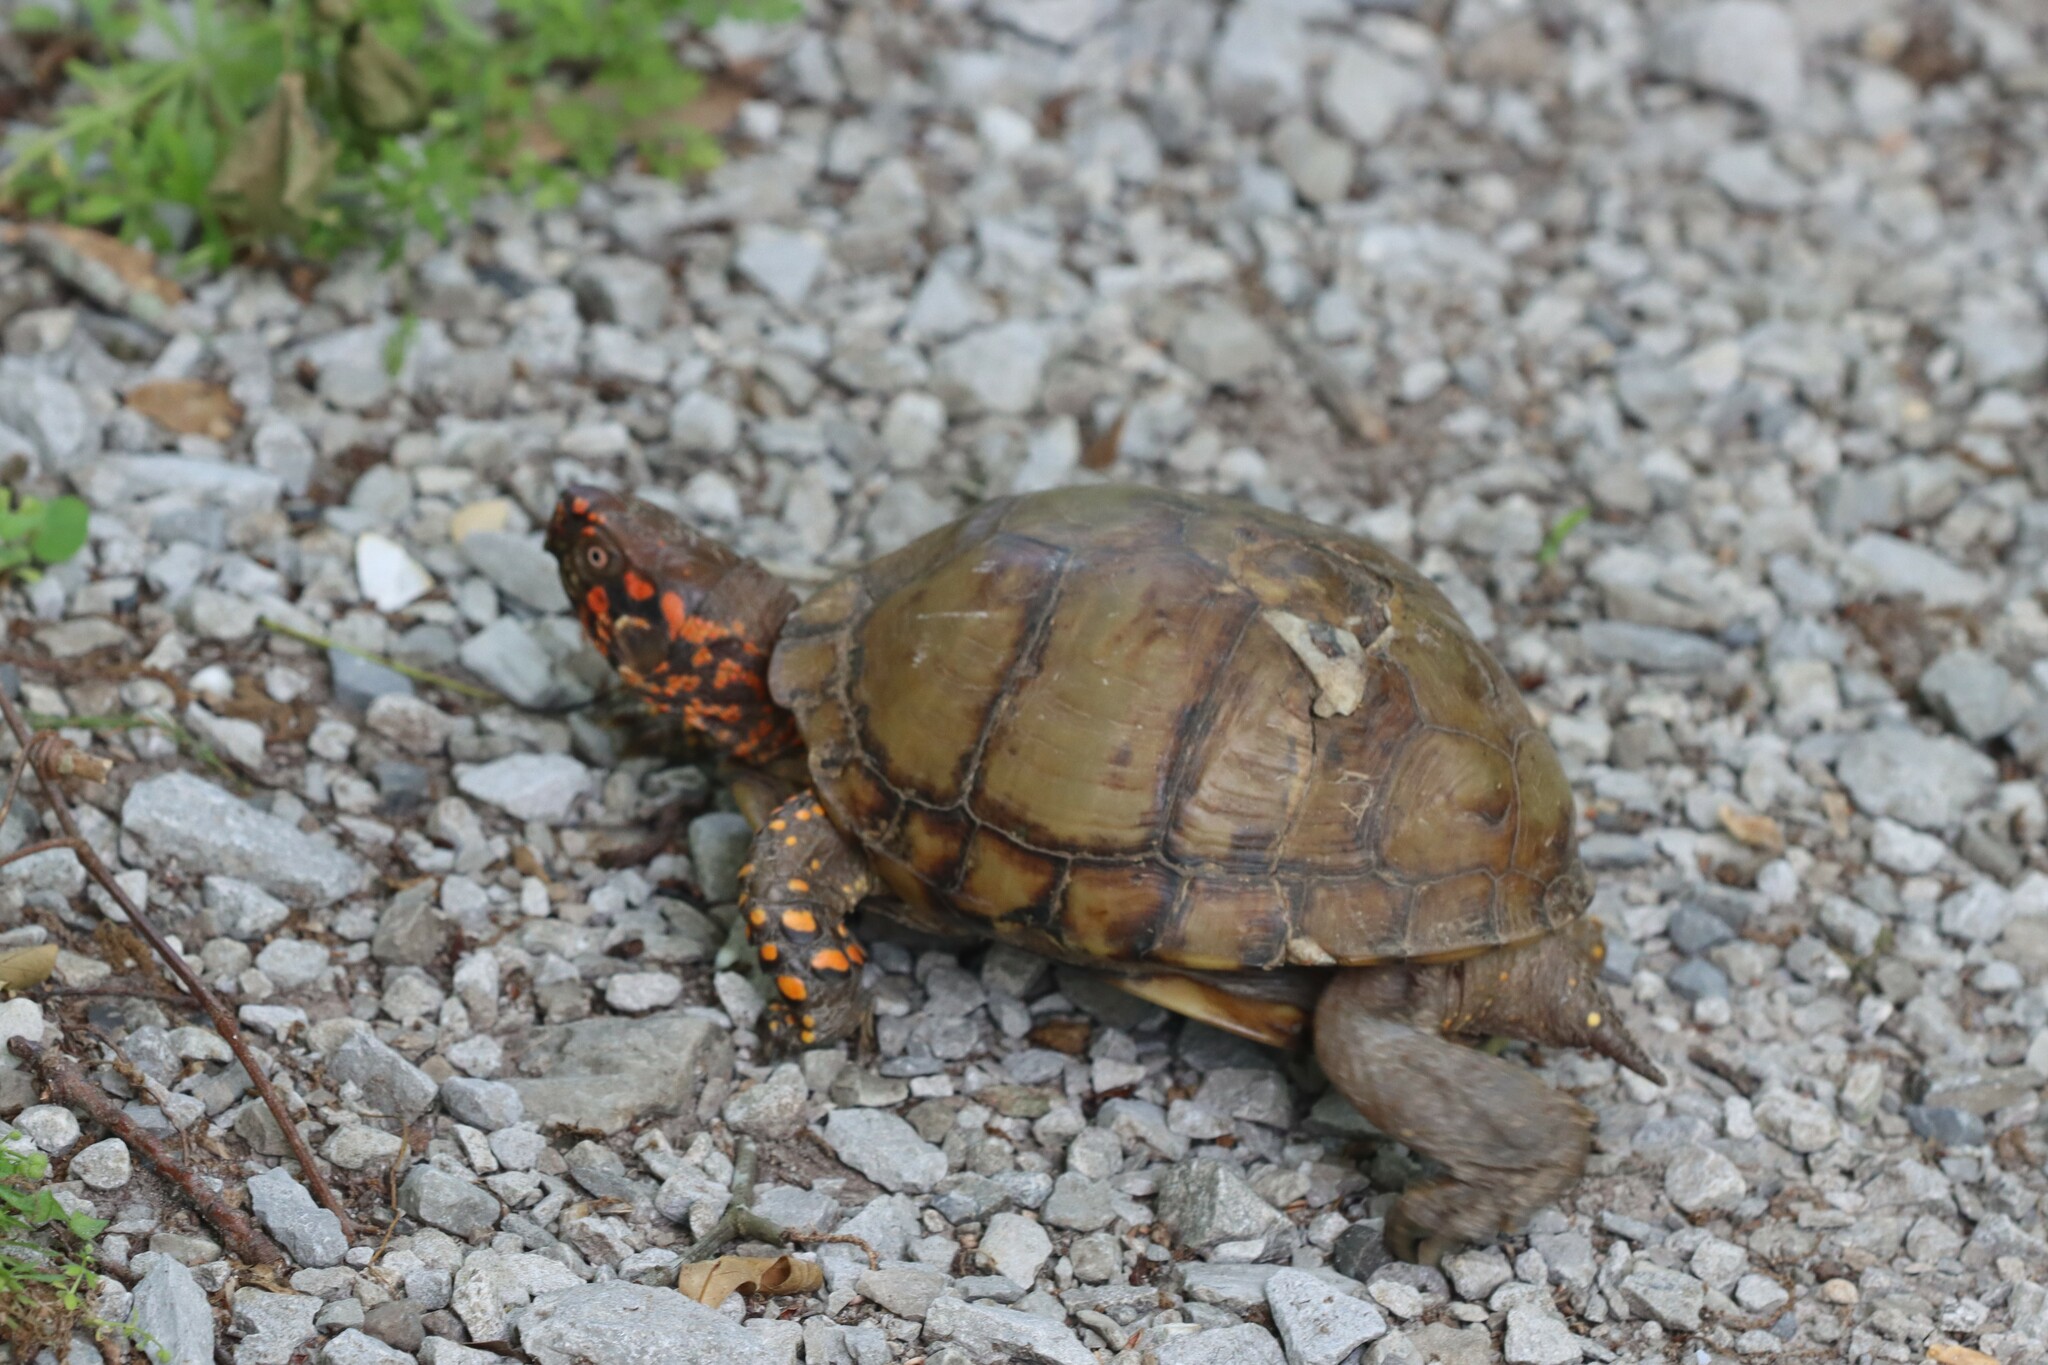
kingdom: Animalia
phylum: Chordata
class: Testudines
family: Emydidae
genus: Terrapene
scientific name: Terrapene carolina
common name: Common box turtle
